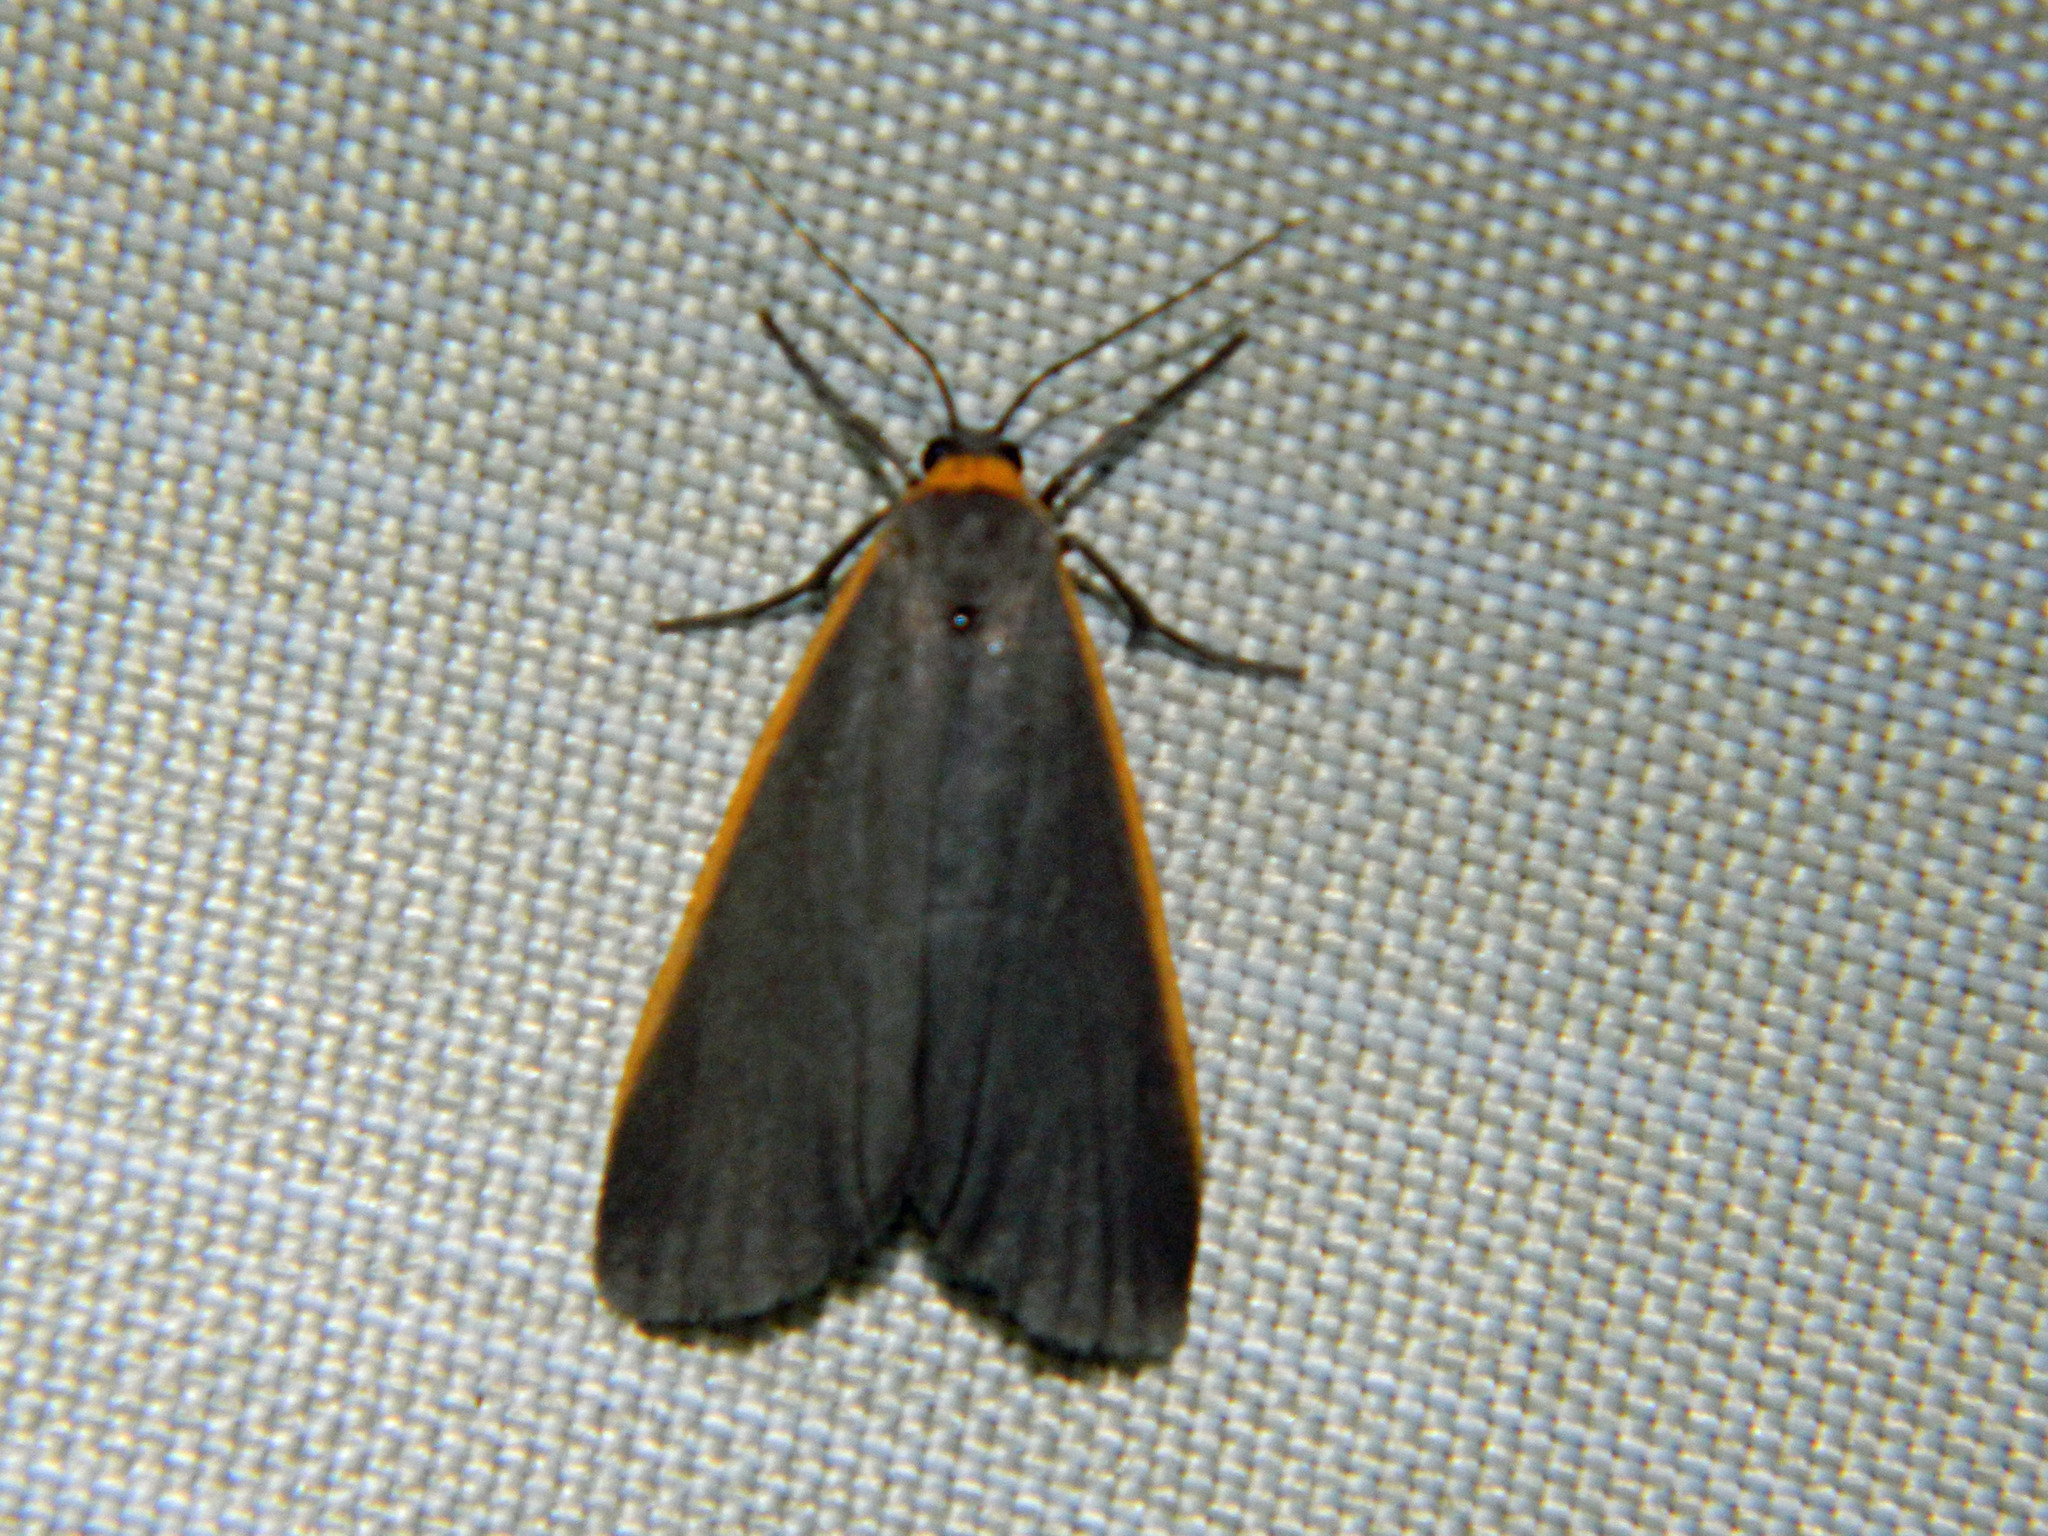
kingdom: Animalia
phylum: Arthropoda
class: Insecta
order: Lepidoptera
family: Erebidae
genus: Manulea
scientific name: Manulea bicolor
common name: Bicolored moth
